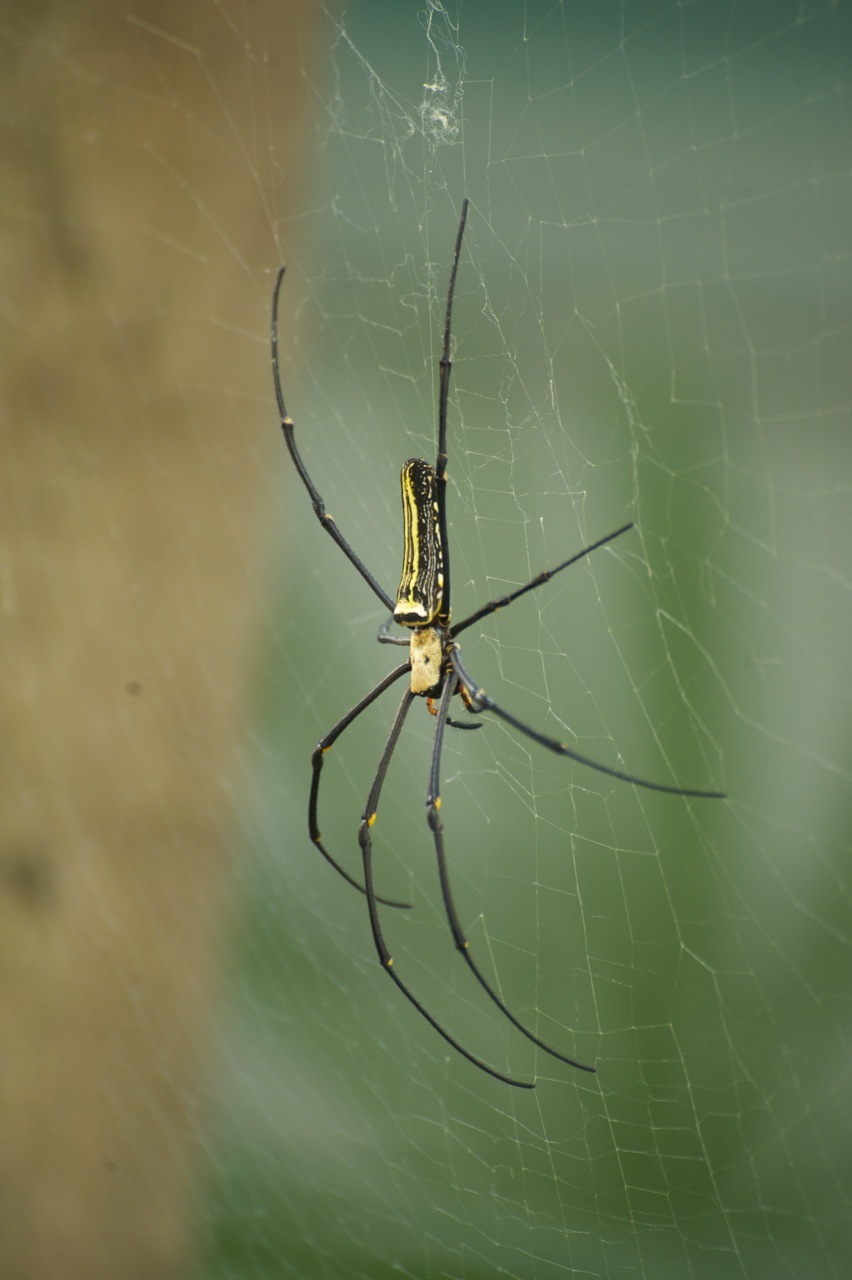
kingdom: Animalia
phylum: Arthropoda
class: Arachnida
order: Araneae
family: Araneidae
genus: Nephila
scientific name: Nephila pilipes
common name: Giant golden orb weaver
